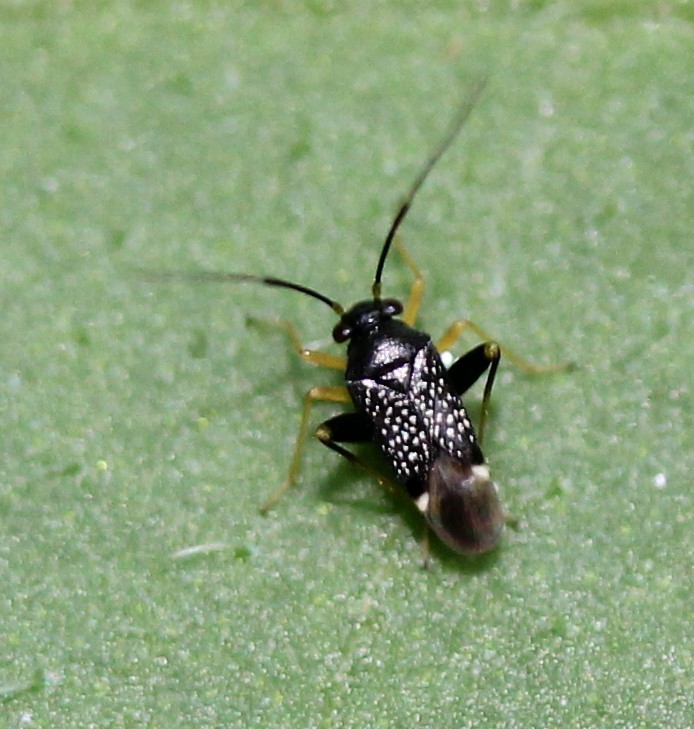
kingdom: Animalia
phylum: Arthropoda
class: Insecta
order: Hemiptera
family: Miridae
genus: Microtechnites
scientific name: Microtechnites bractatus
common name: Garden fleahopper
